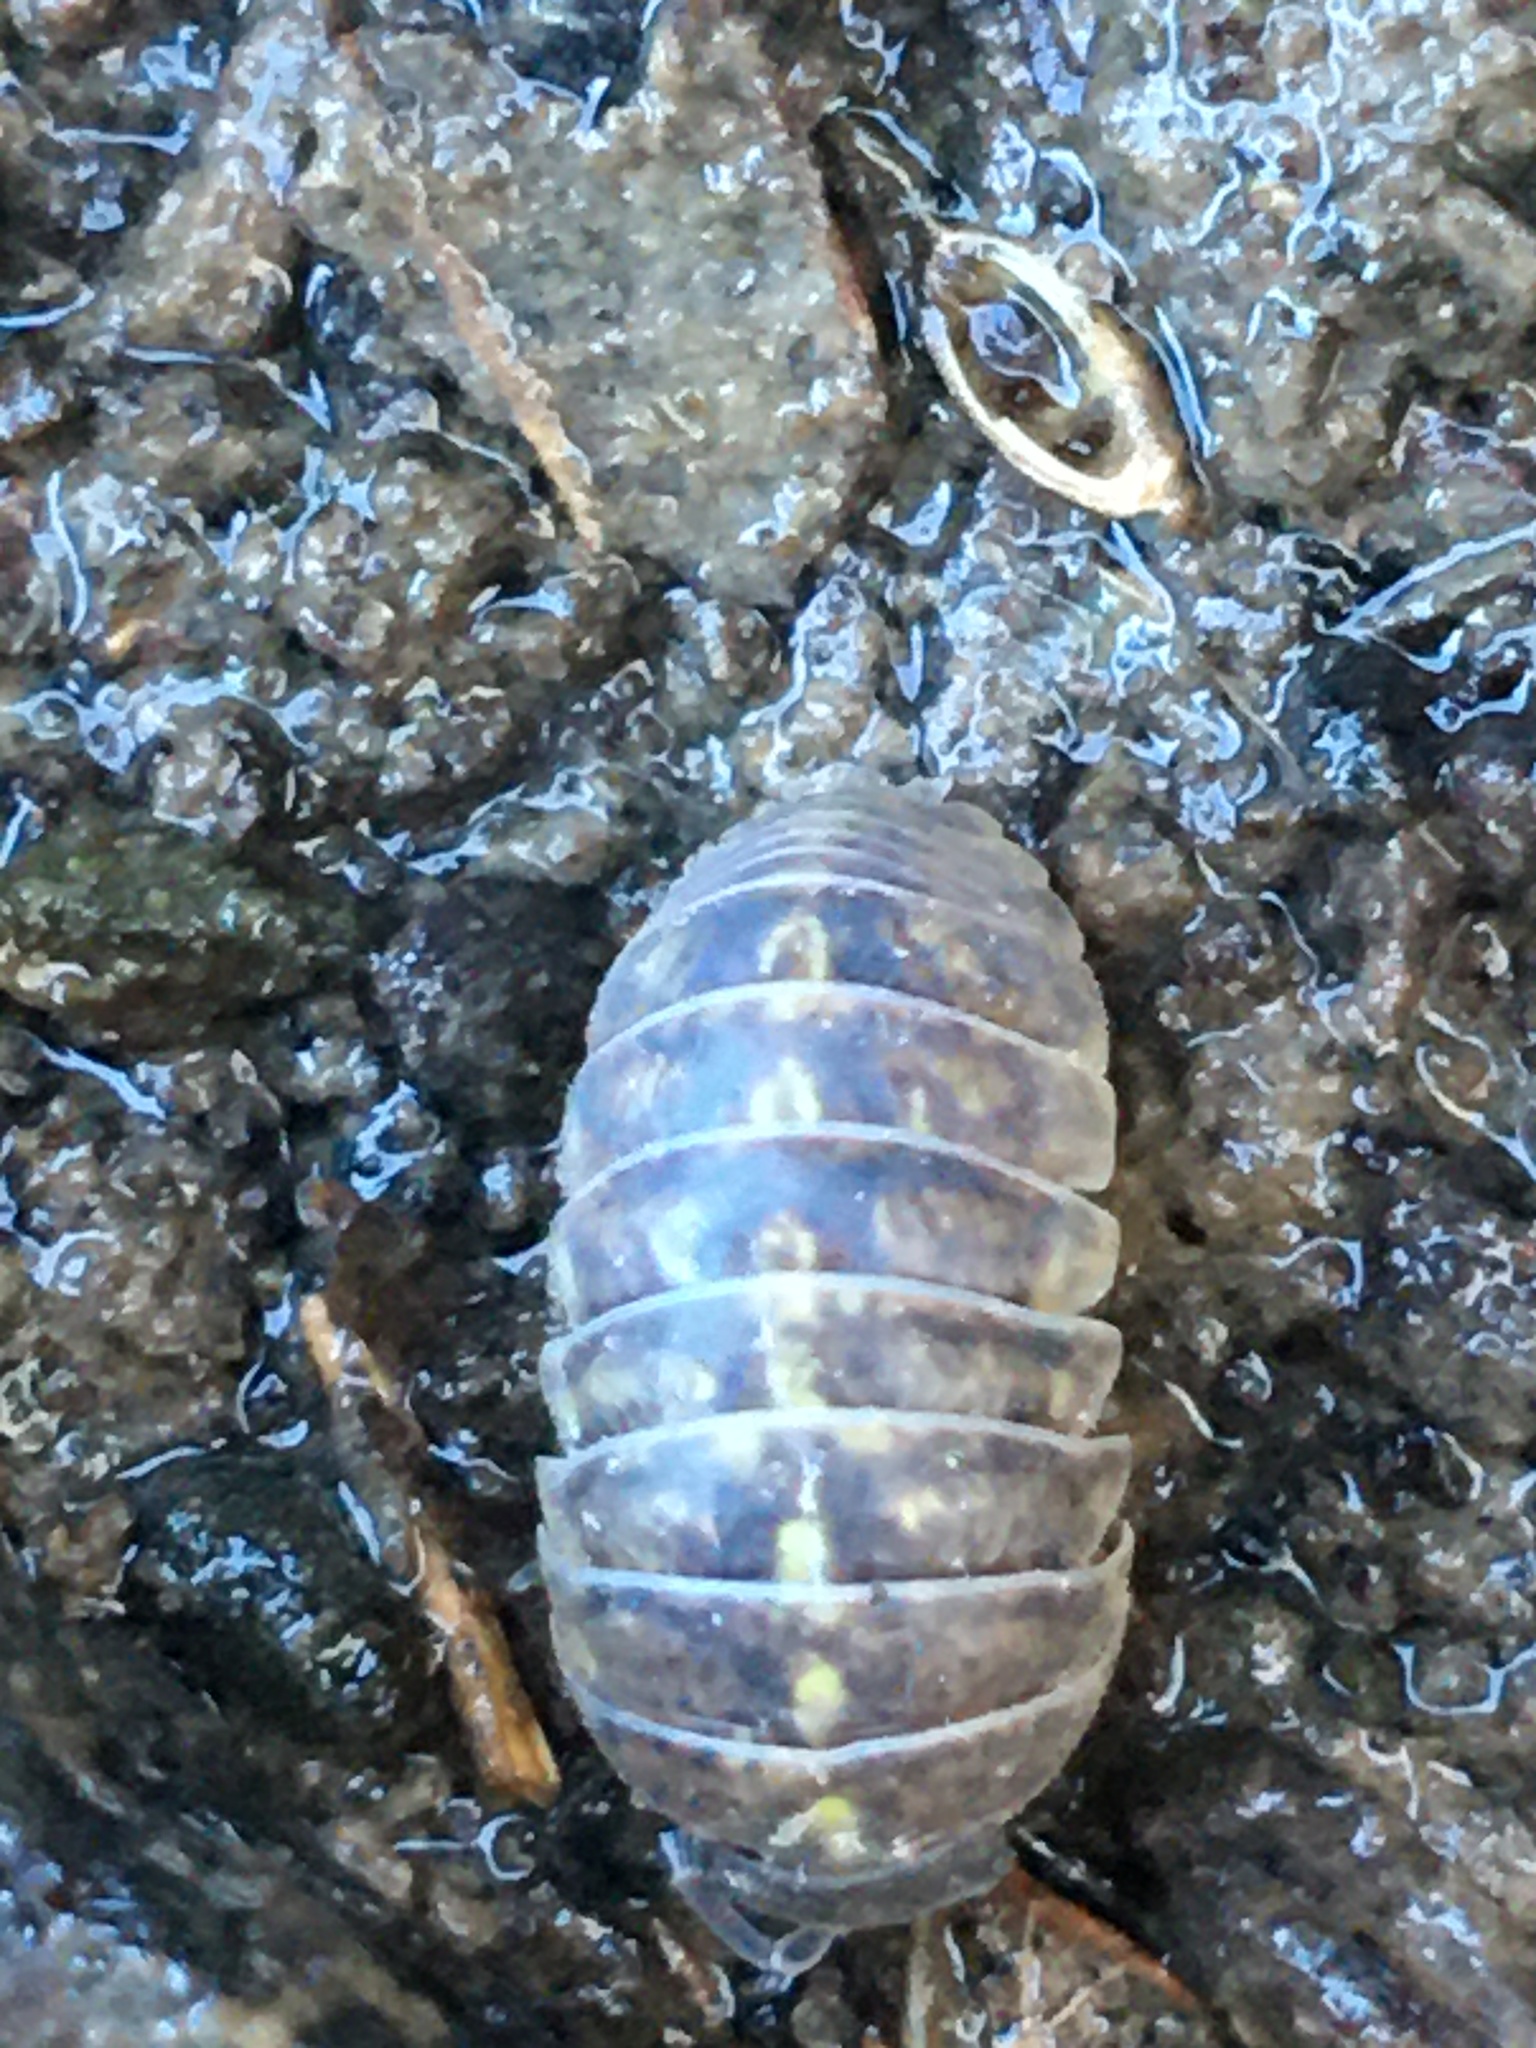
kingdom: Animalia
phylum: Arthropoda
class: Malacostraca
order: Isopoda
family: Armadillidiidae
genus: Armadillidium
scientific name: Armadillidium vulgare
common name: Common pill woodlouse
